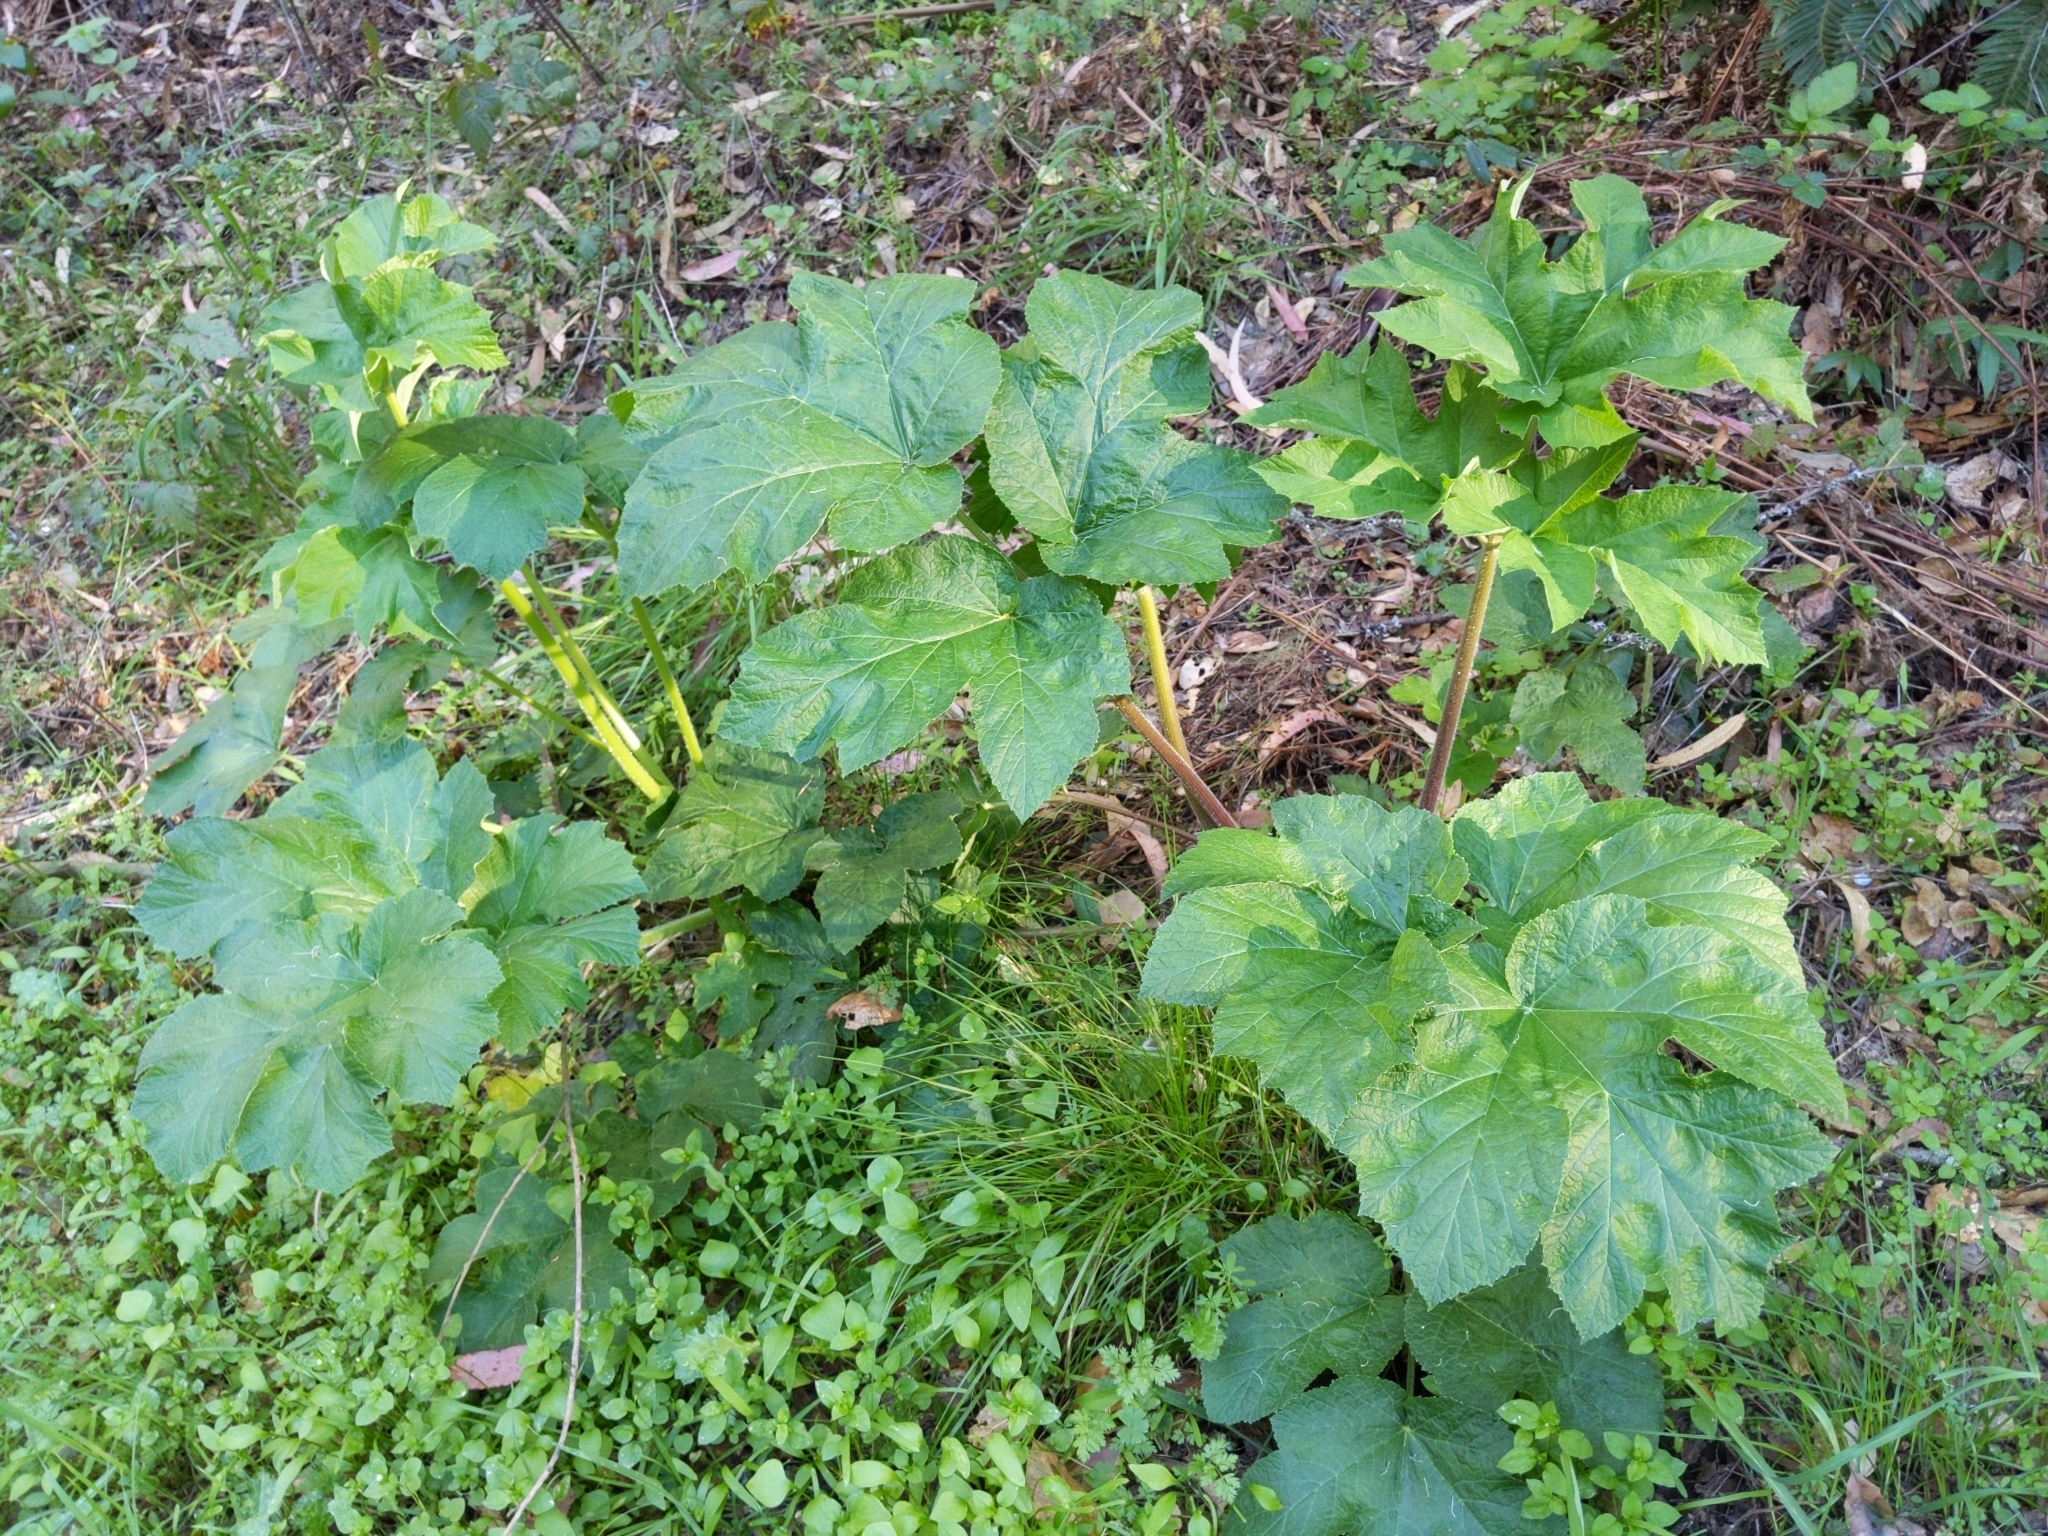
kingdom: Plantae
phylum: Tracheophyta
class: Magnoliopsida
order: Apiales
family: Apiaceae
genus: Heracleum
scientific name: Heracleum maximum
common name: American cow parsnip
